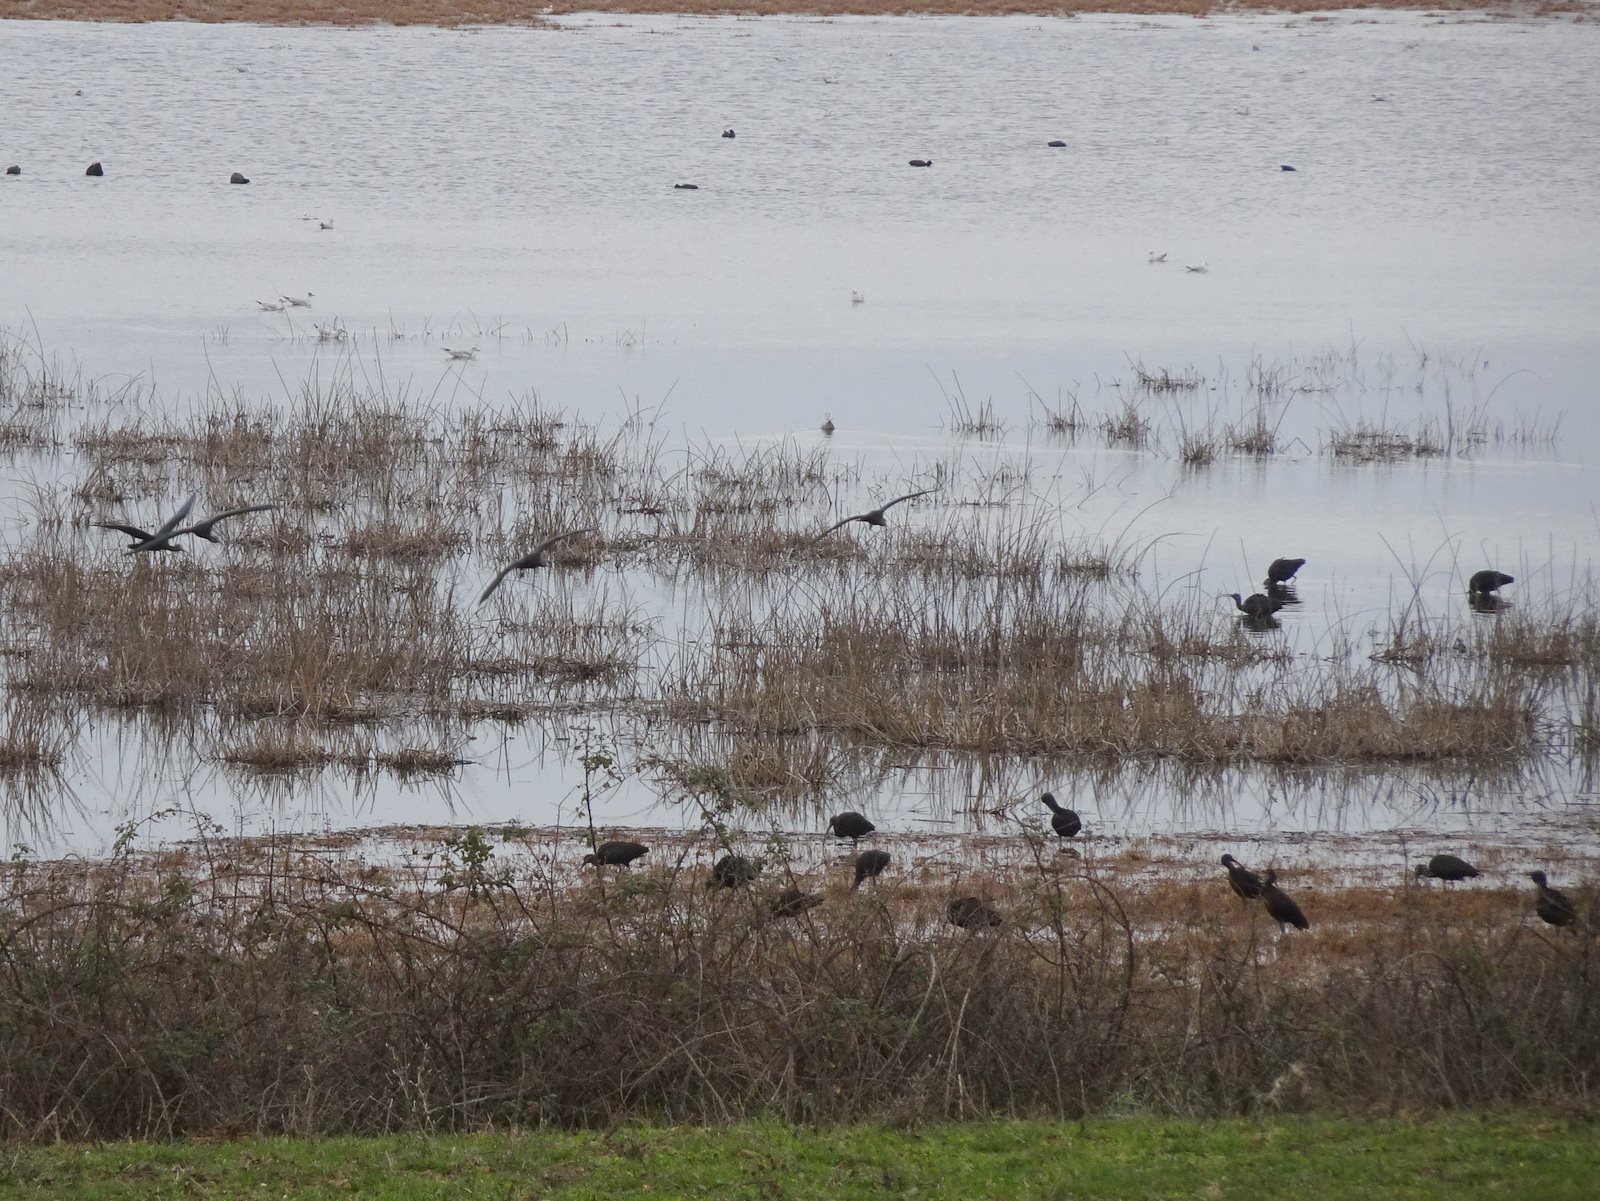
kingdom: Animalia
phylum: Chordata
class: Aves
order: Pelecaniformes
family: Threskiornithidae
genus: Plegadis
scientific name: Plegadis falcinellus
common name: Glossy ibis
